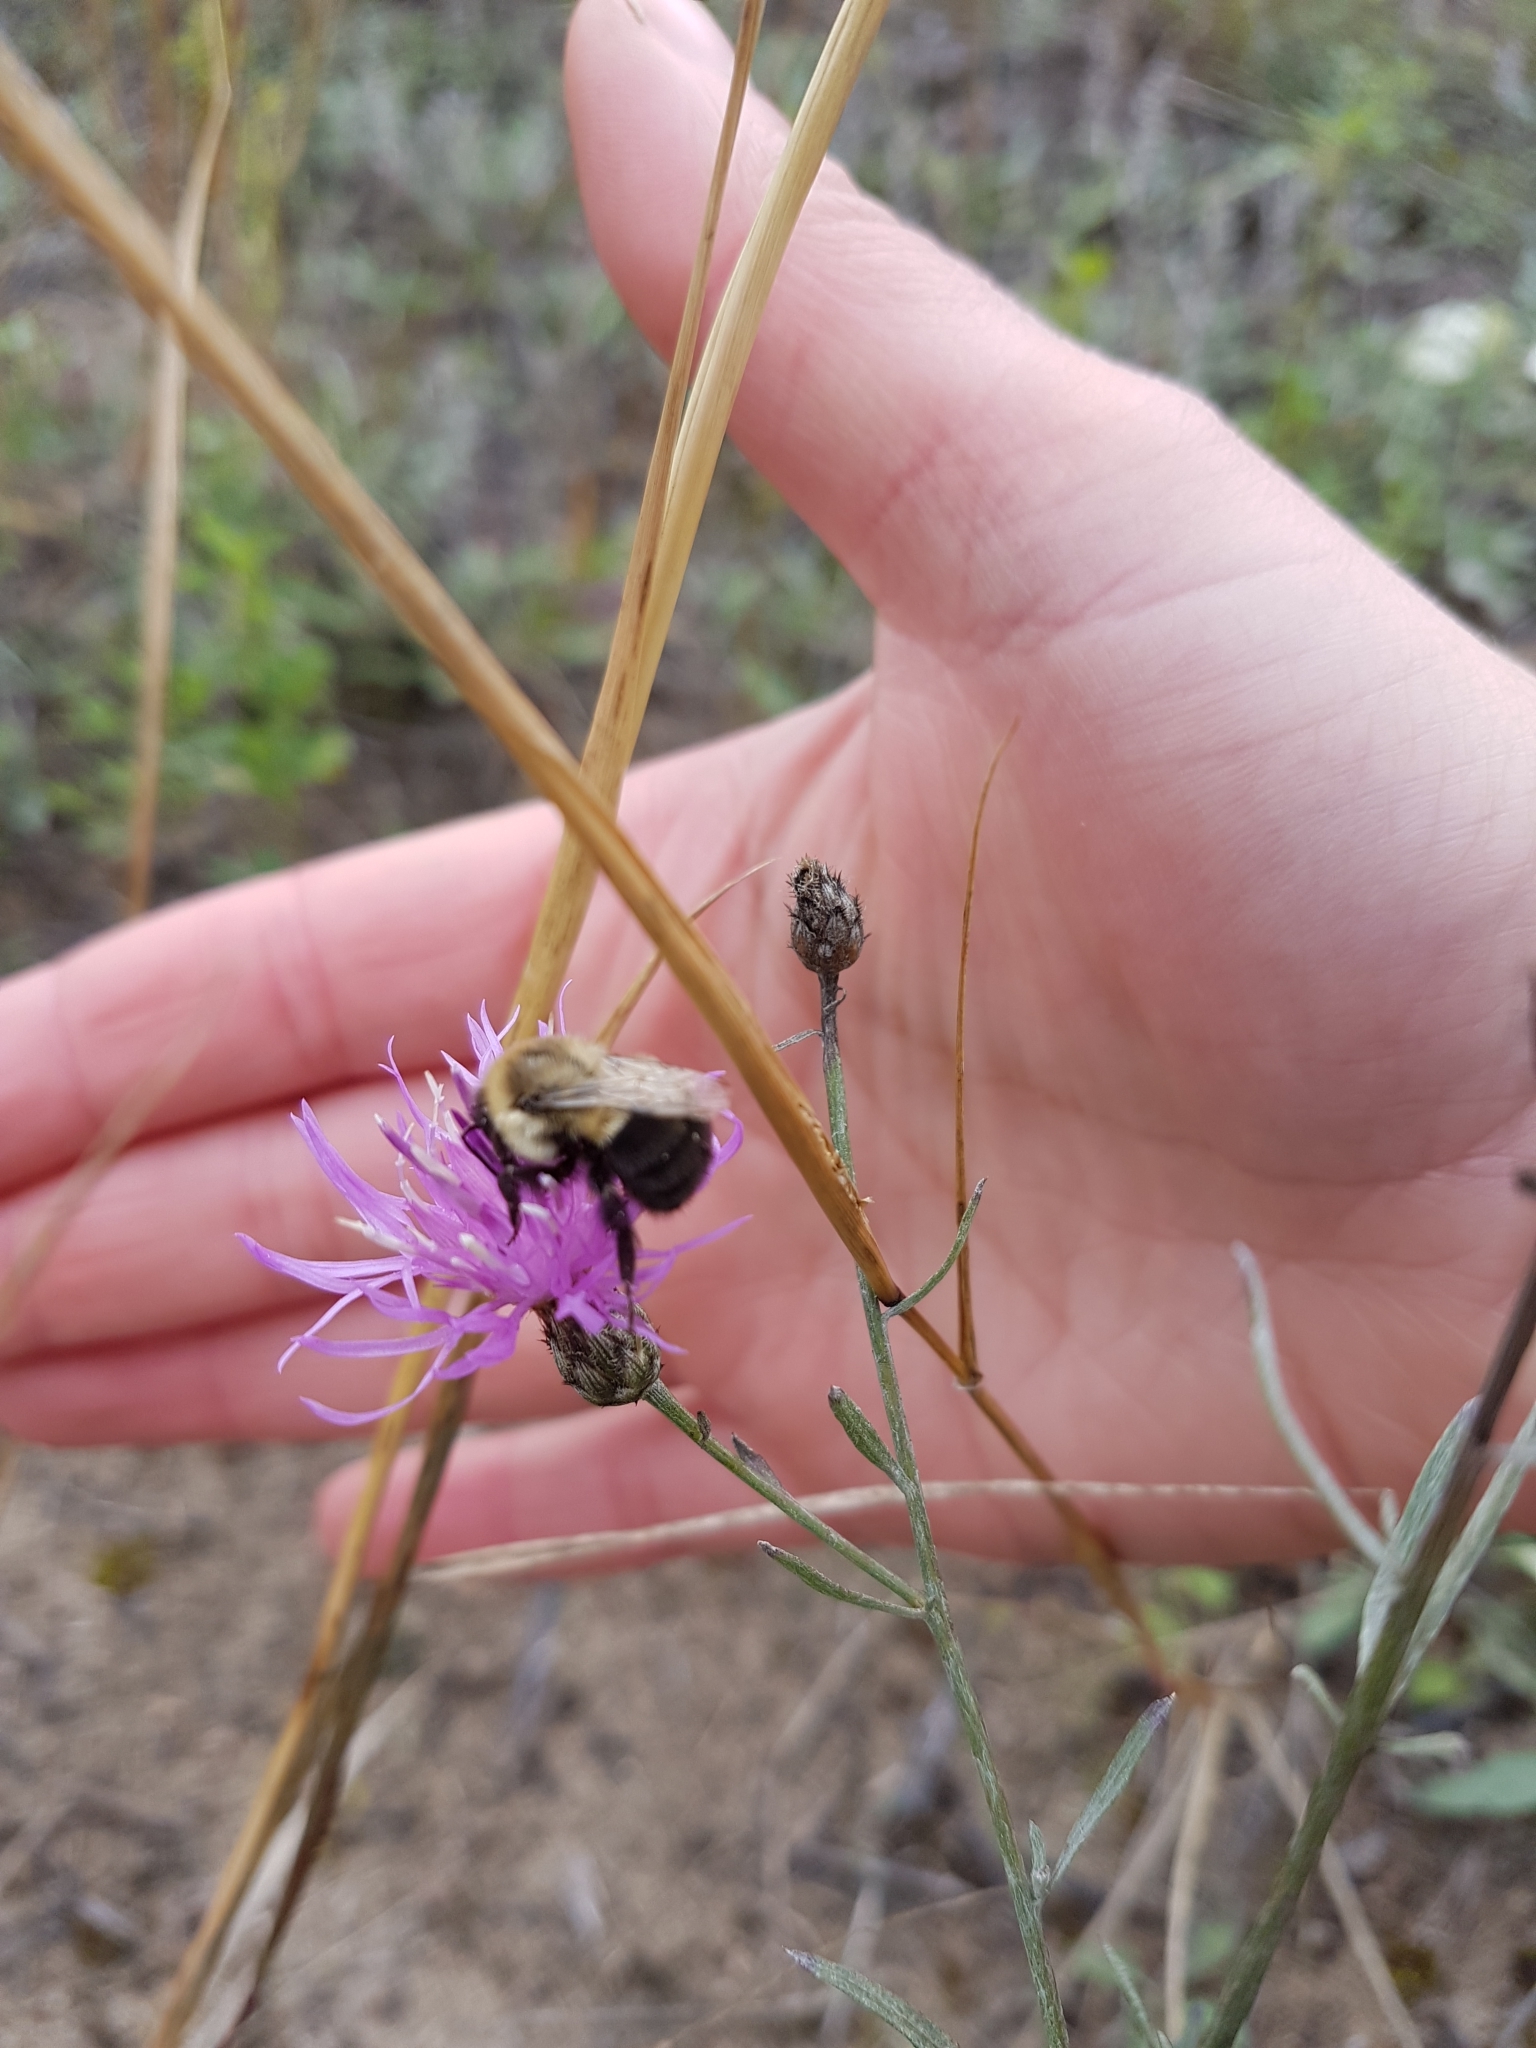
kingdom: Animalia
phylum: Arthropoda
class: Insecta
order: Hymenoptera
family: Apidae
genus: Bombus
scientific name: Bombus impatiens
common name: Common eastern bumble bee
